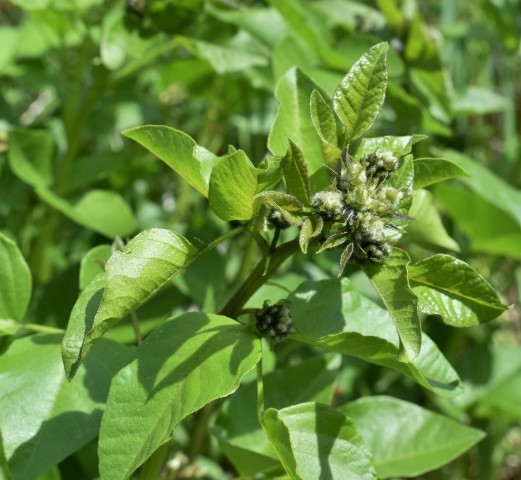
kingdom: Plantae
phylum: Tracheophyta
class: Magnoliopsida
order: Fabales
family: Fabaceae
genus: Rupertia
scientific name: Rupertia physodes
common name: California-tea
